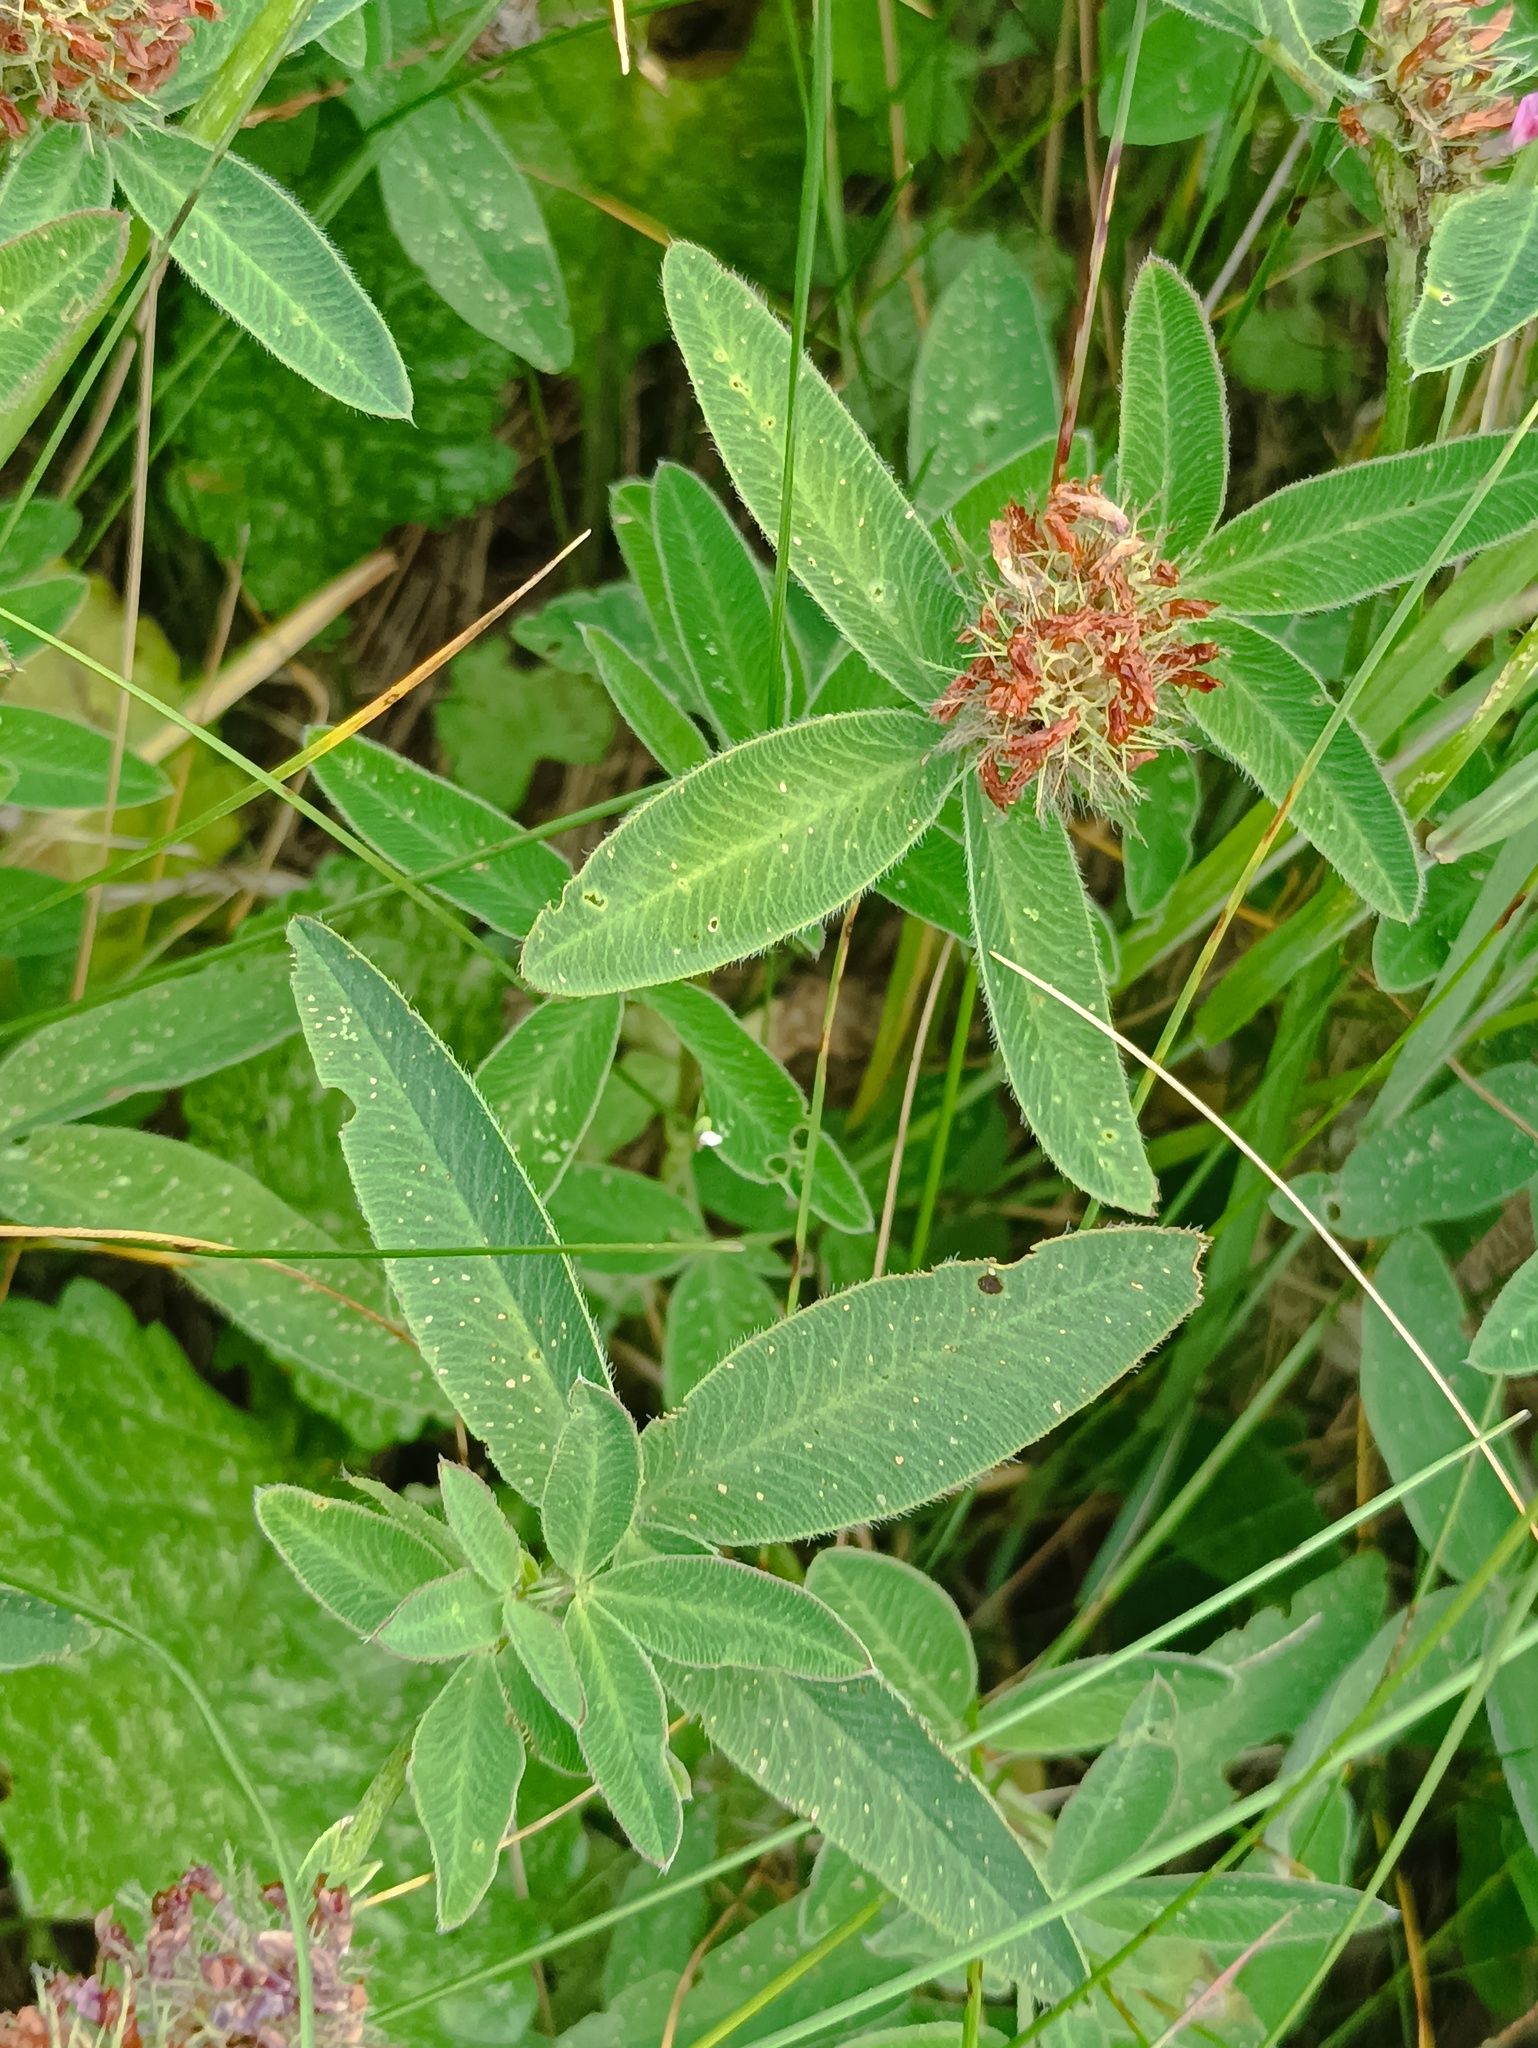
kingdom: Plantae
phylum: Tracheophyta
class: Magnoliopsida
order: Fabales
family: Fabaceae
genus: Trifolium
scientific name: Trifolium medium
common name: Zigzag clover
